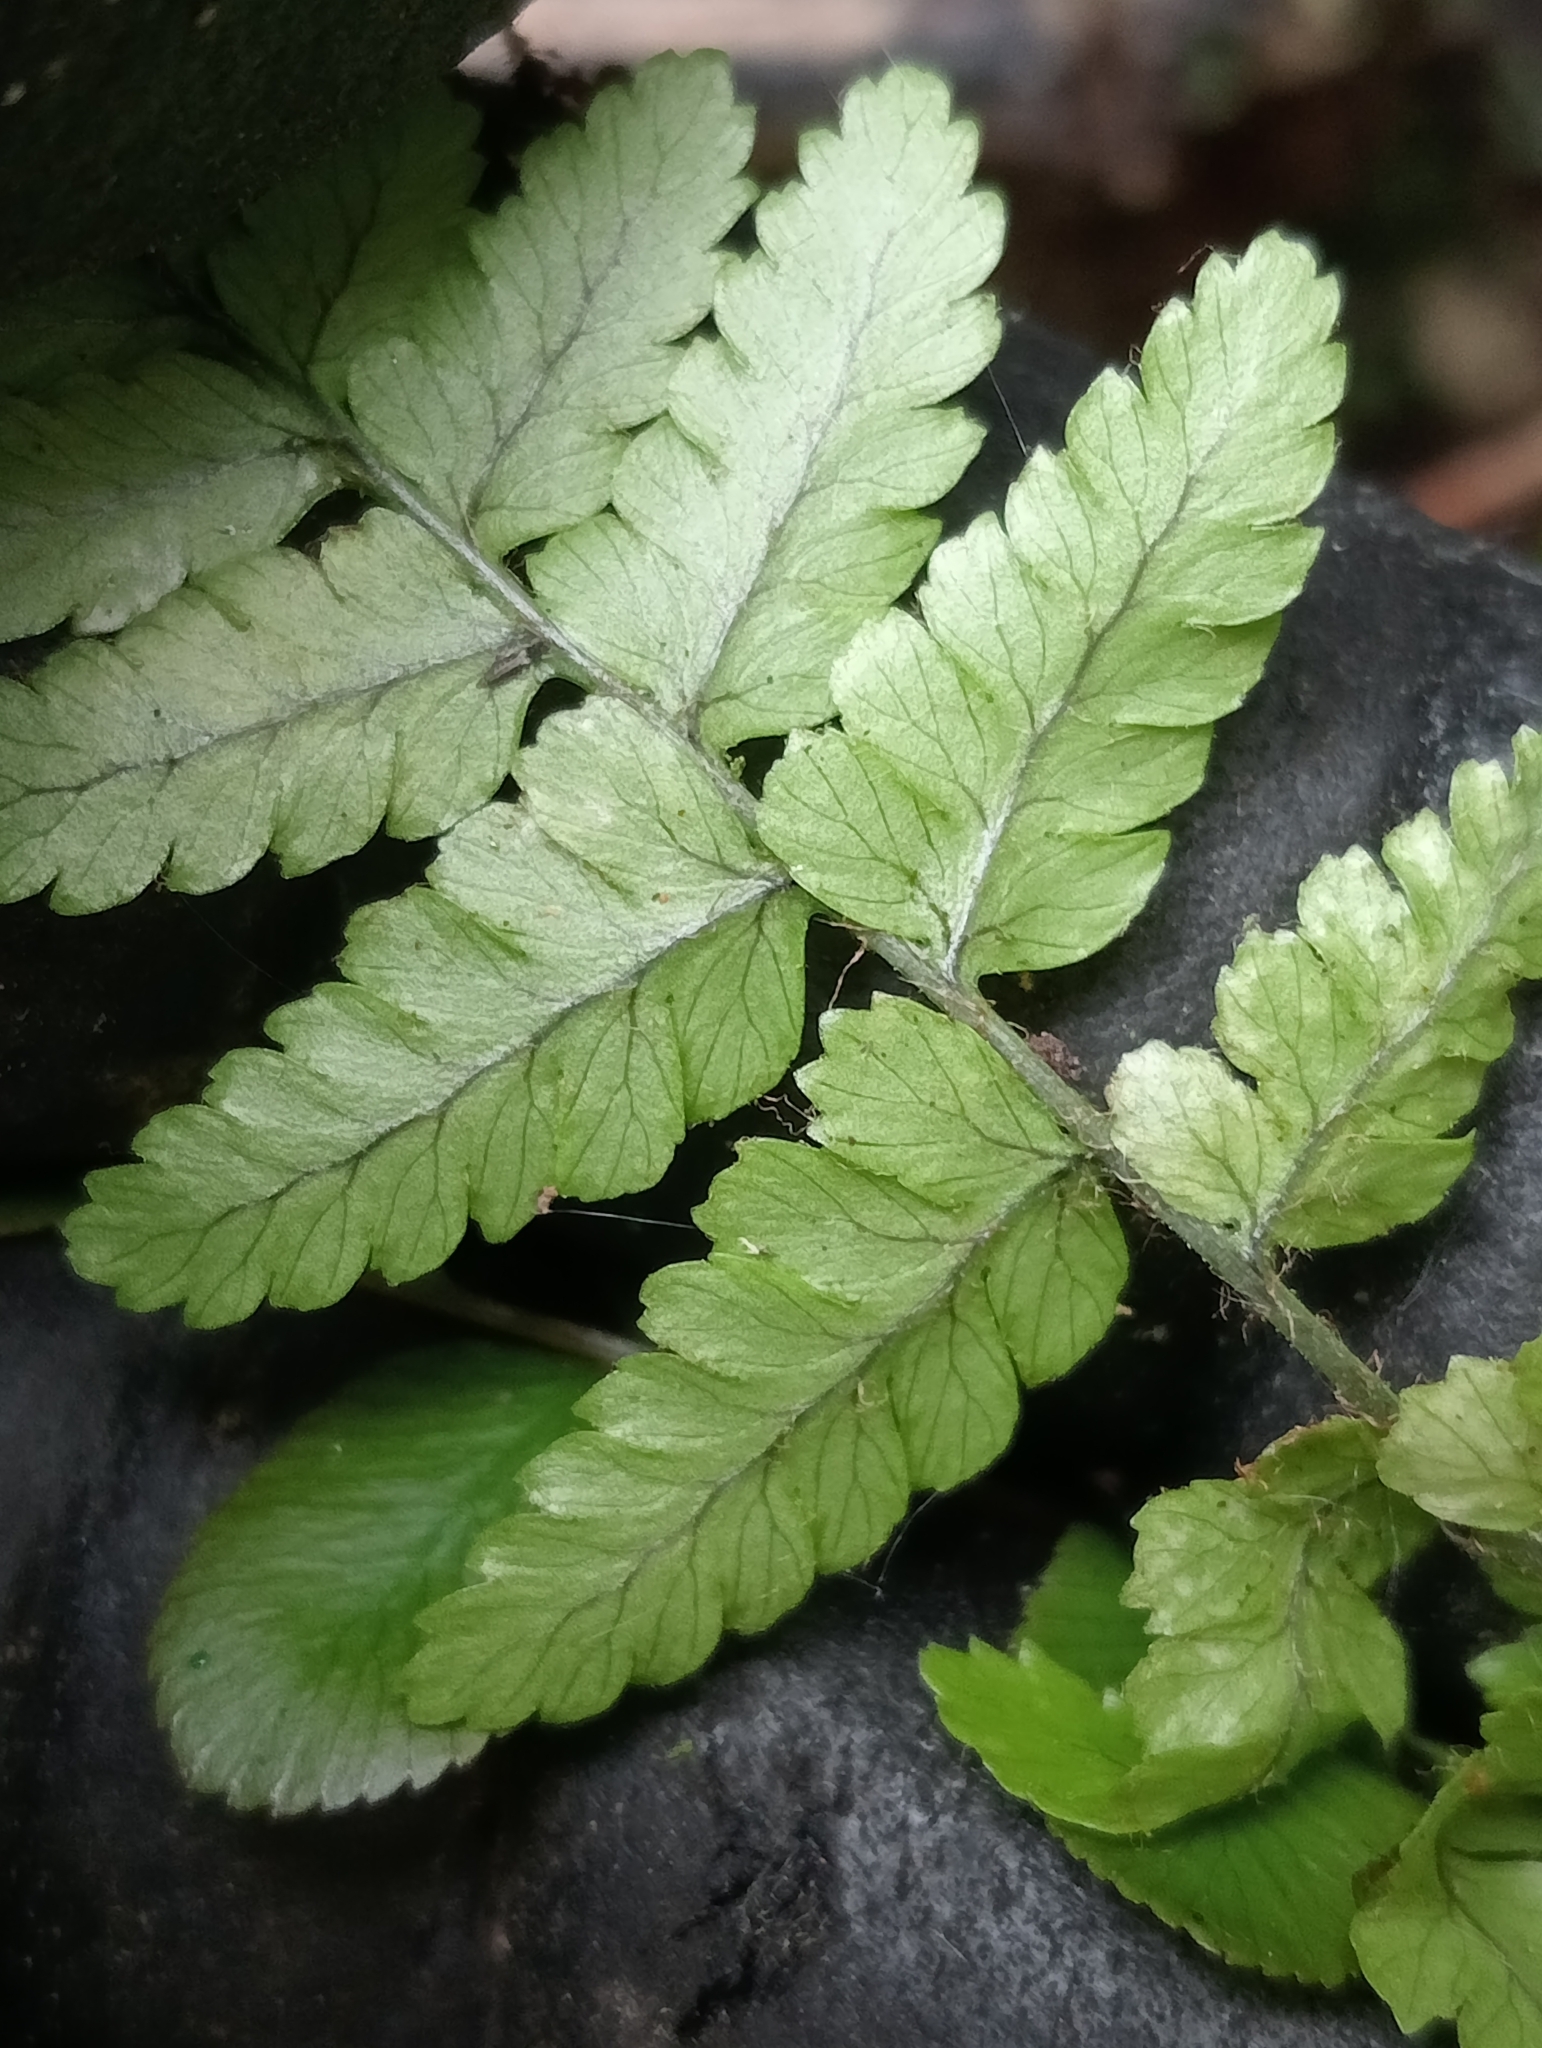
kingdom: Plantae
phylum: Tracheophyta
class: Polypodiopsida
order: Polypodiales
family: Dryopteridaceae
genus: Dryopteris
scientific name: Dryopteris filix-mas
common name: Male fern
